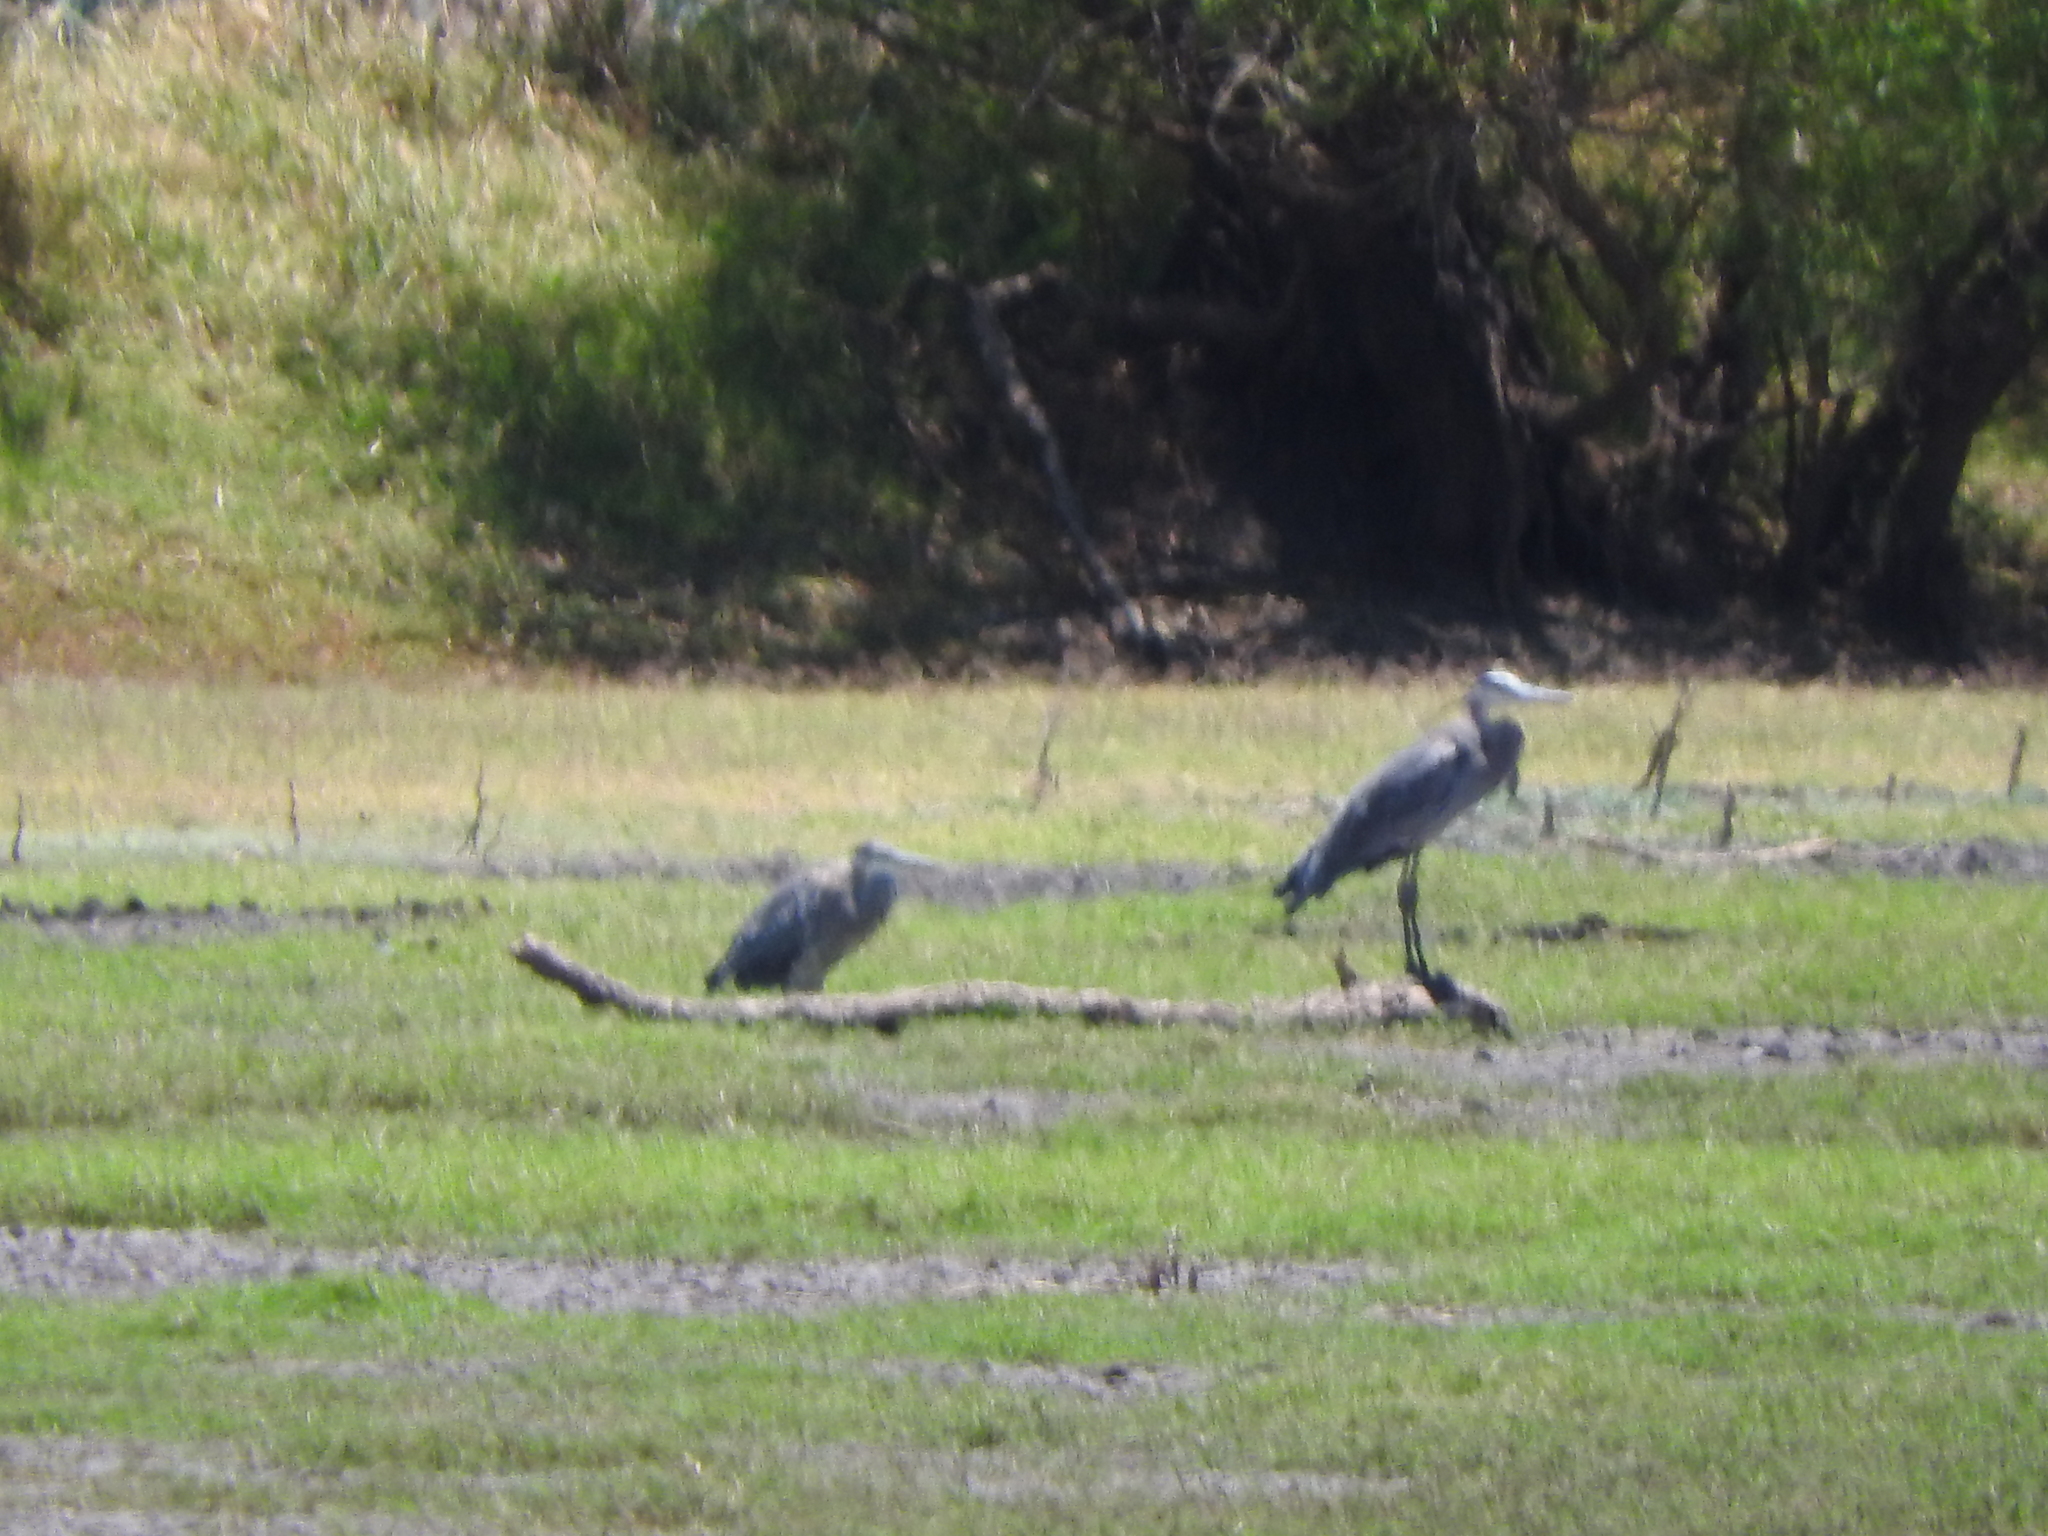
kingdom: Animalia
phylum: Chordata
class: Aves
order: Pelecaniformes
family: Ardeidae
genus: Ardea
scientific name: Ardea herodias
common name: Great blue heron
